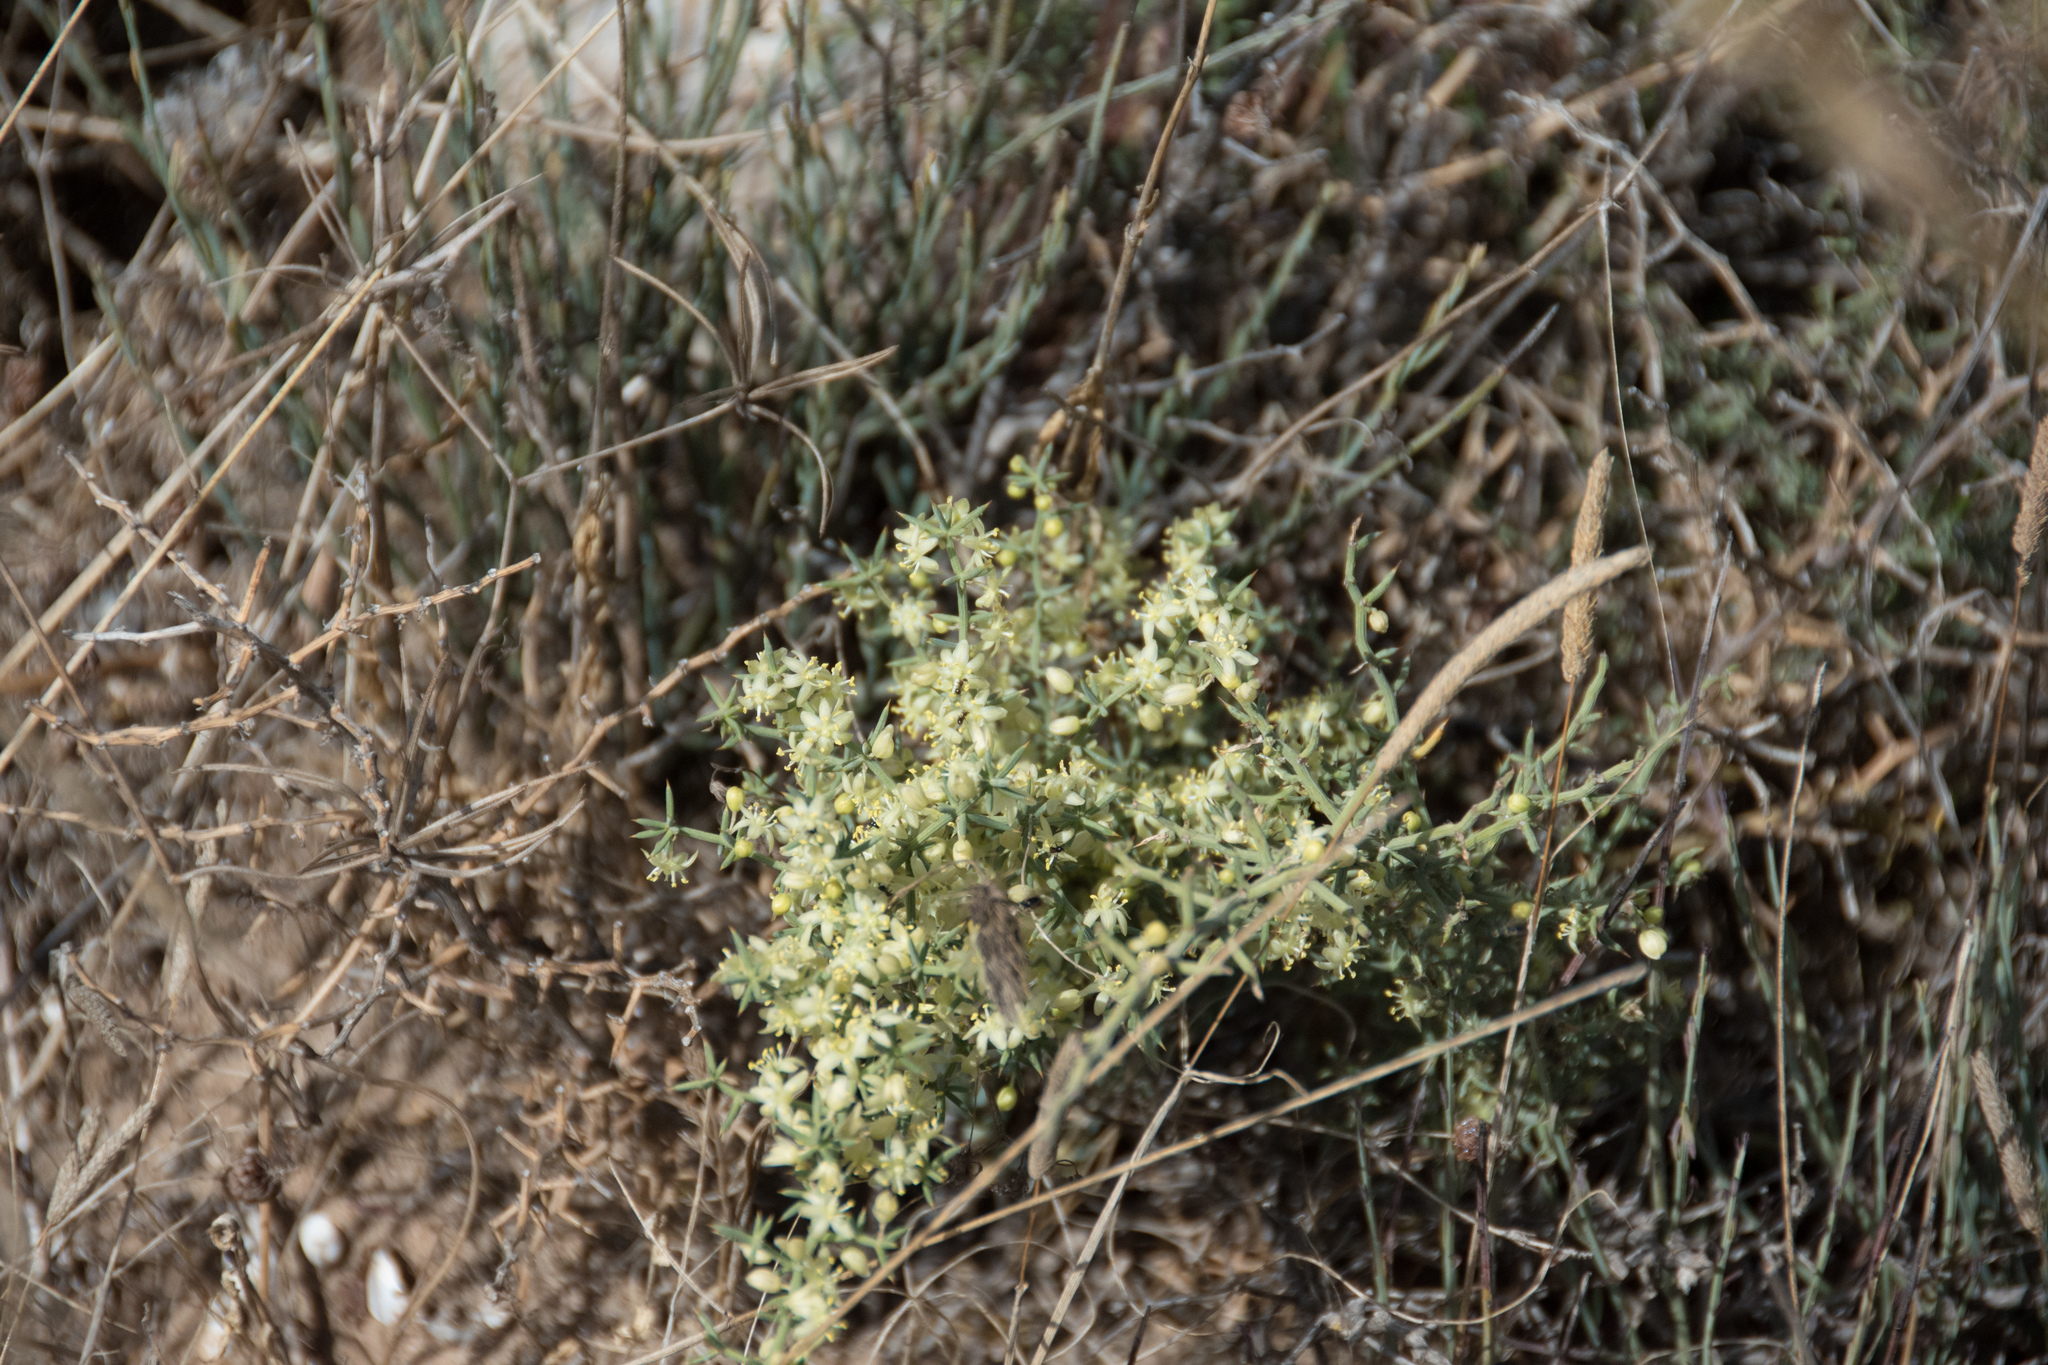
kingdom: Plantae
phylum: Tracheophyta
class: Liliopsida
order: Asparagales
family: Asparagaceae
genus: Asparagus
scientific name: Asparagus aphyllus
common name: Mediterranean asparagus
